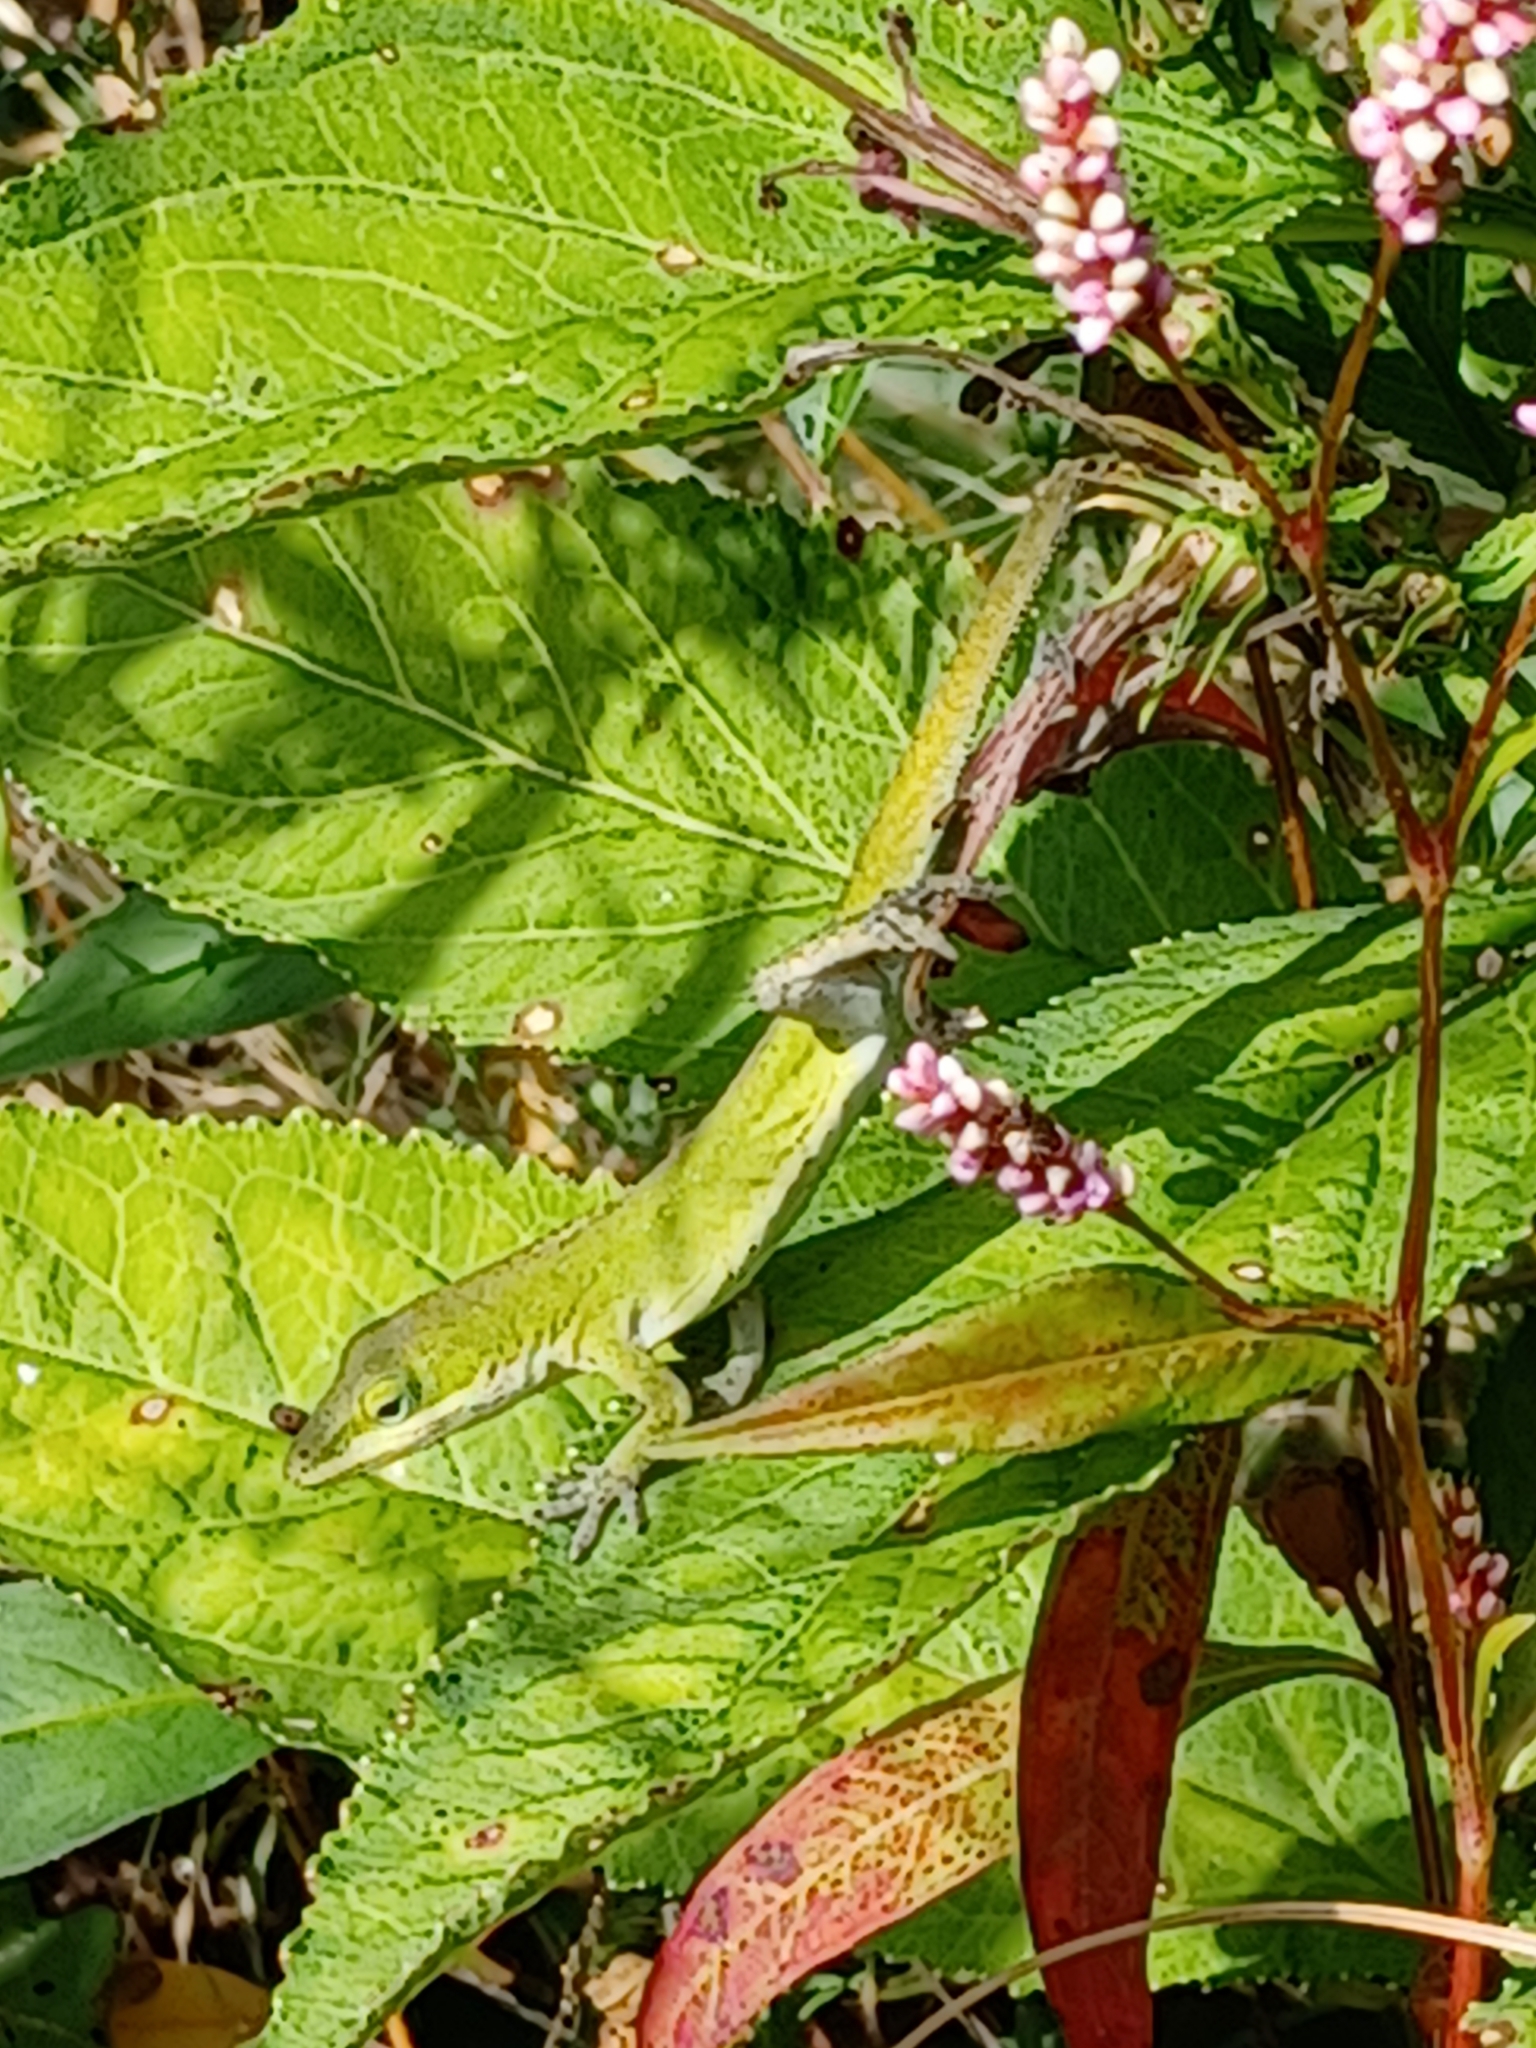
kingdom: Animalia
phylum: Chordata
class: Squamata
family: Dactyloidae
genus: Anolis
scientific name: Anolis carolinensis
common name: Green anole
